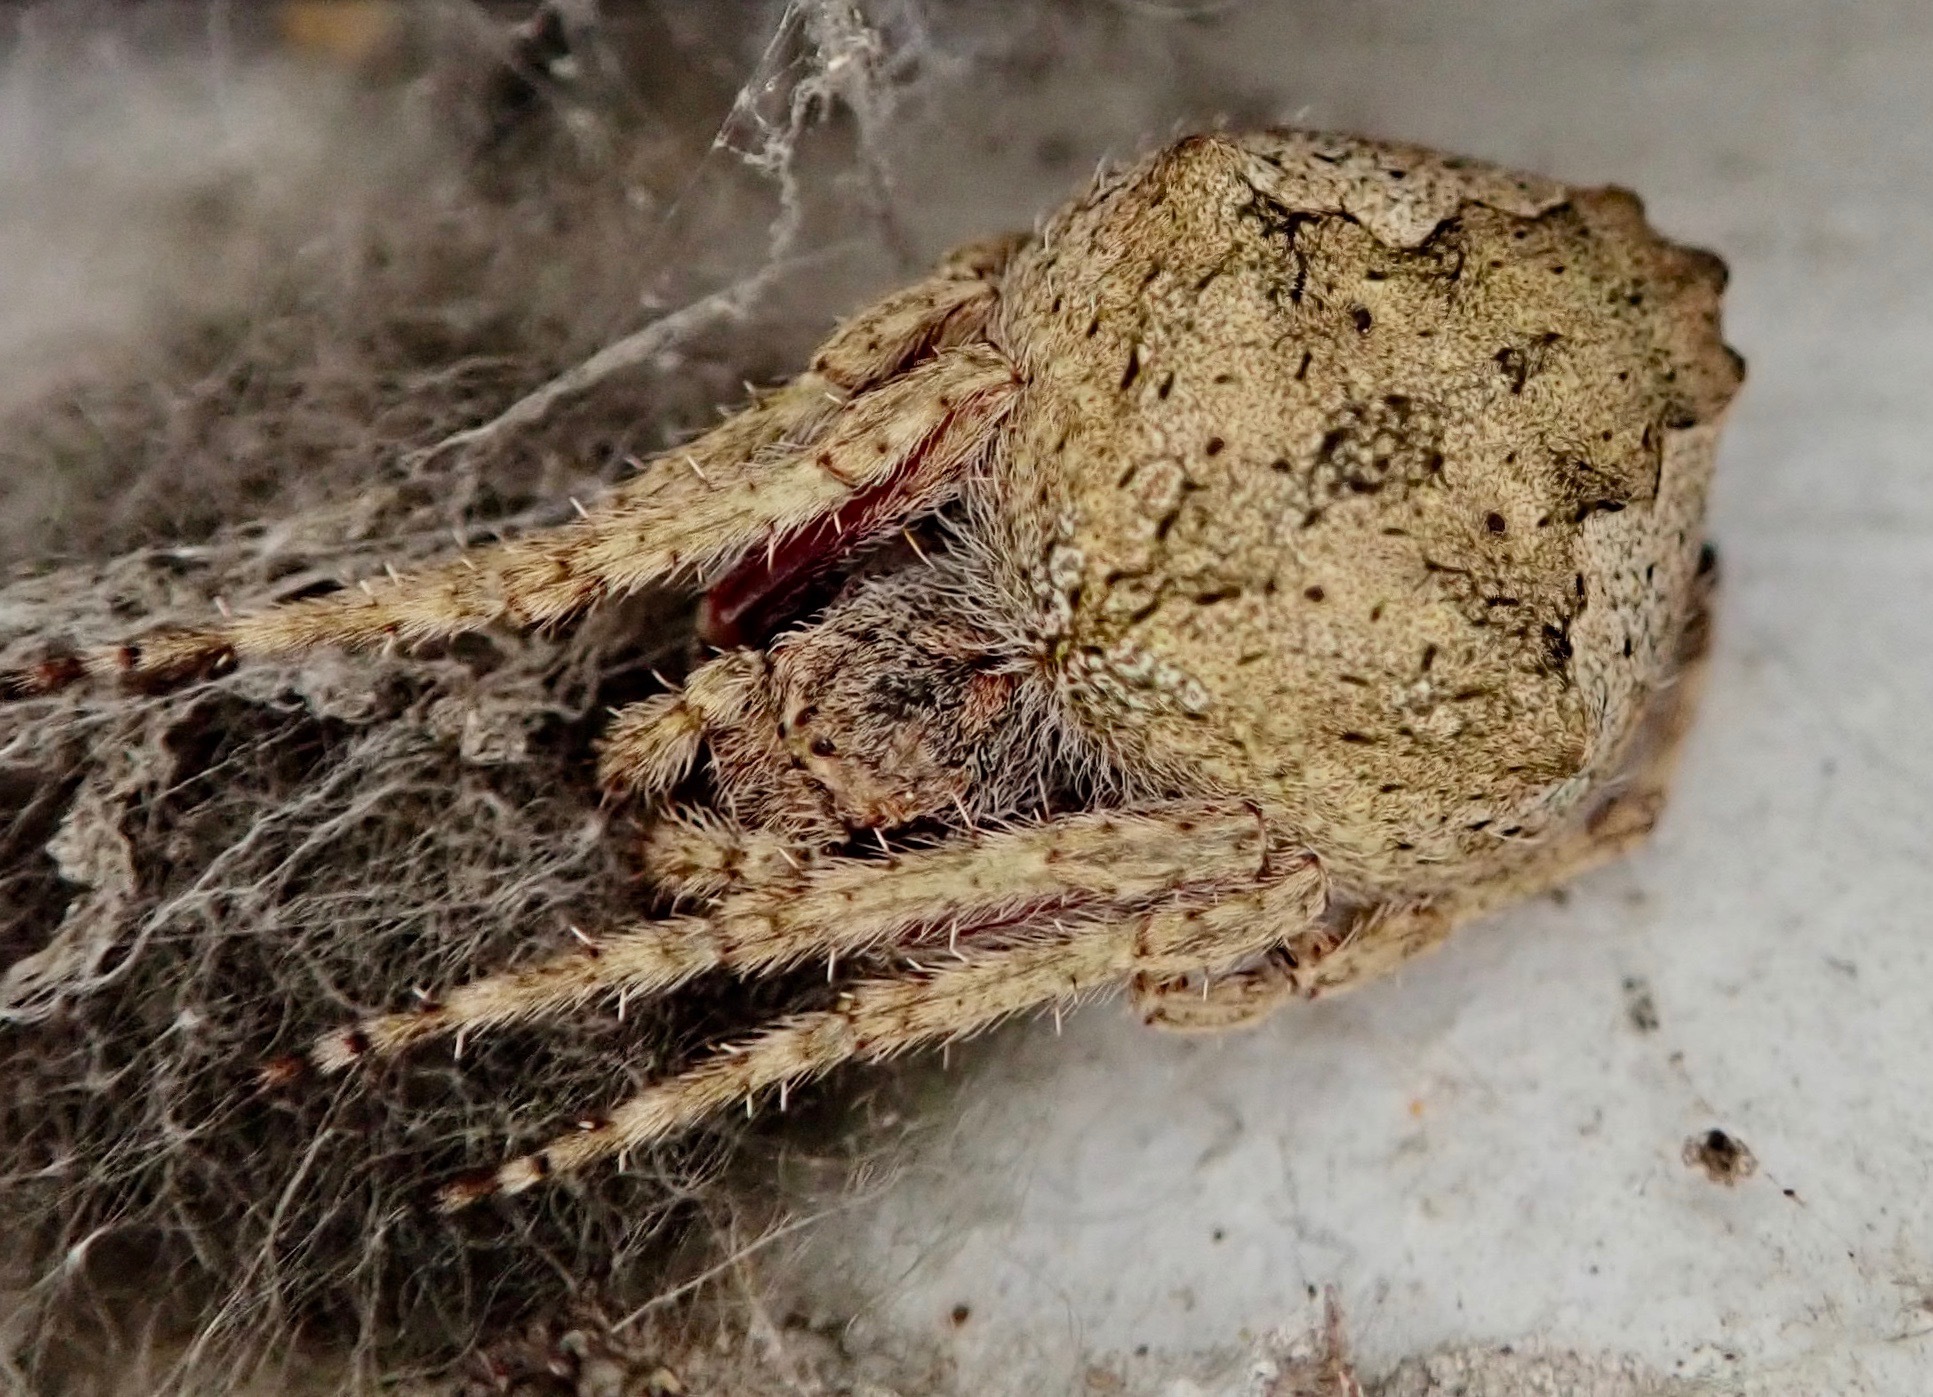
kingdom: Animalia
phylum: Arthropoda
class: Arachnida
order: Araneae
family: Araneidae
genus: Eriophora
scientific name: Eriophora pustulosa
